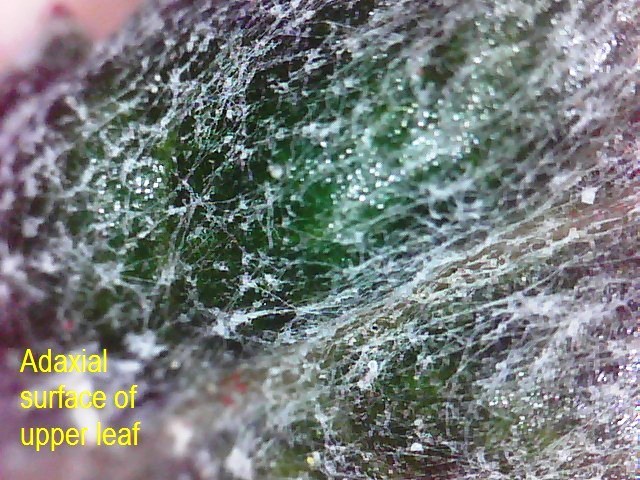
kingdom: Plantae
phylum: Tracheophyta
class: Magnoliopsida
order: Asterales
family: Asteraceae
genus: Senecio
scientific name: Senecio glomeratus
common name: Cutleaf burnweed
